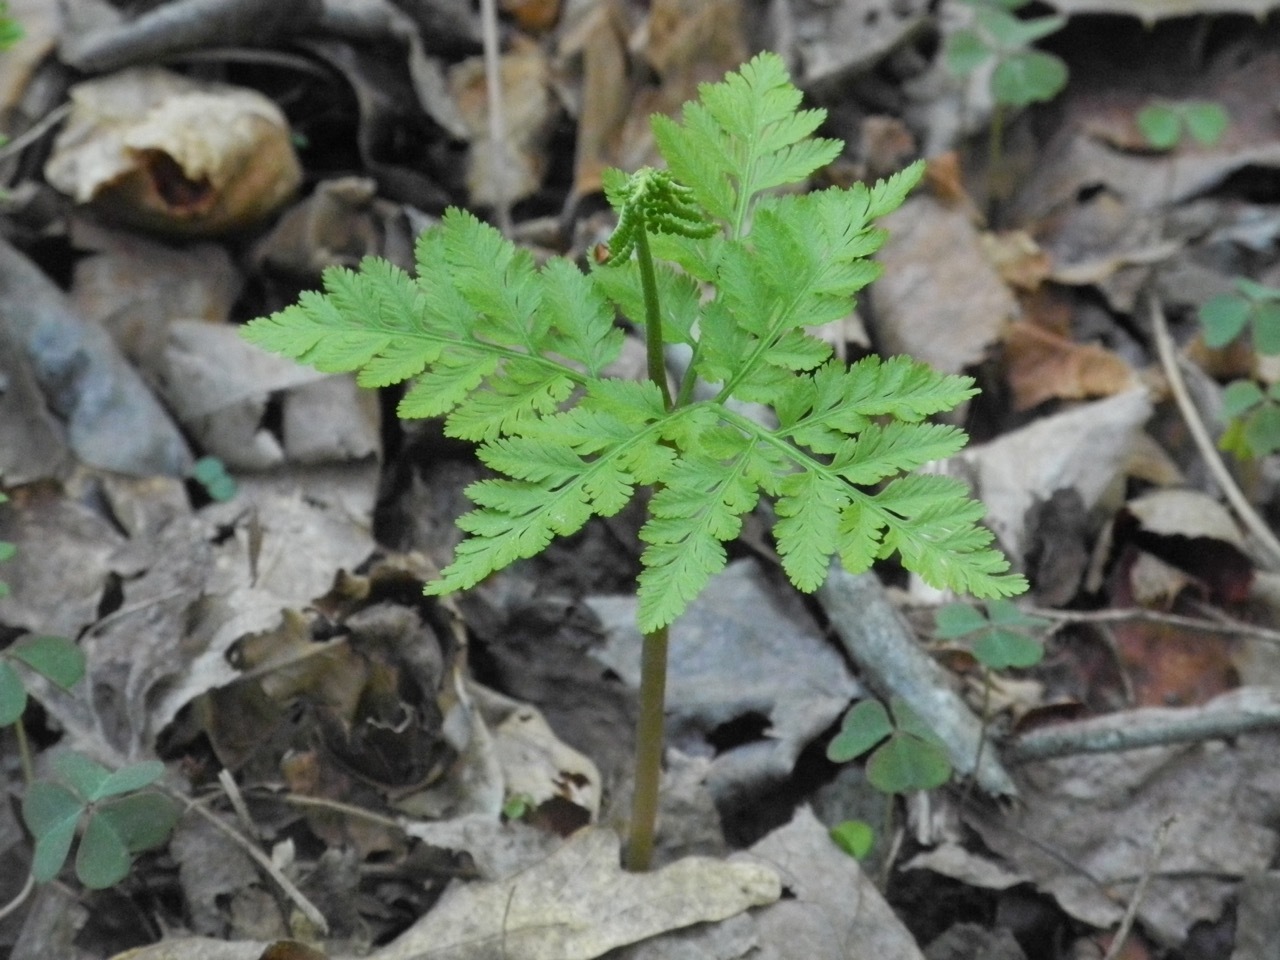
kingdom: Plantae
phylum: Tracheophyta
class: Polypodiopsida
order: Ophioglossales
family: Ophioglossaceae
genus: Botrypus
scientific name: Botrypus virginianus
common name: Common grapefern
